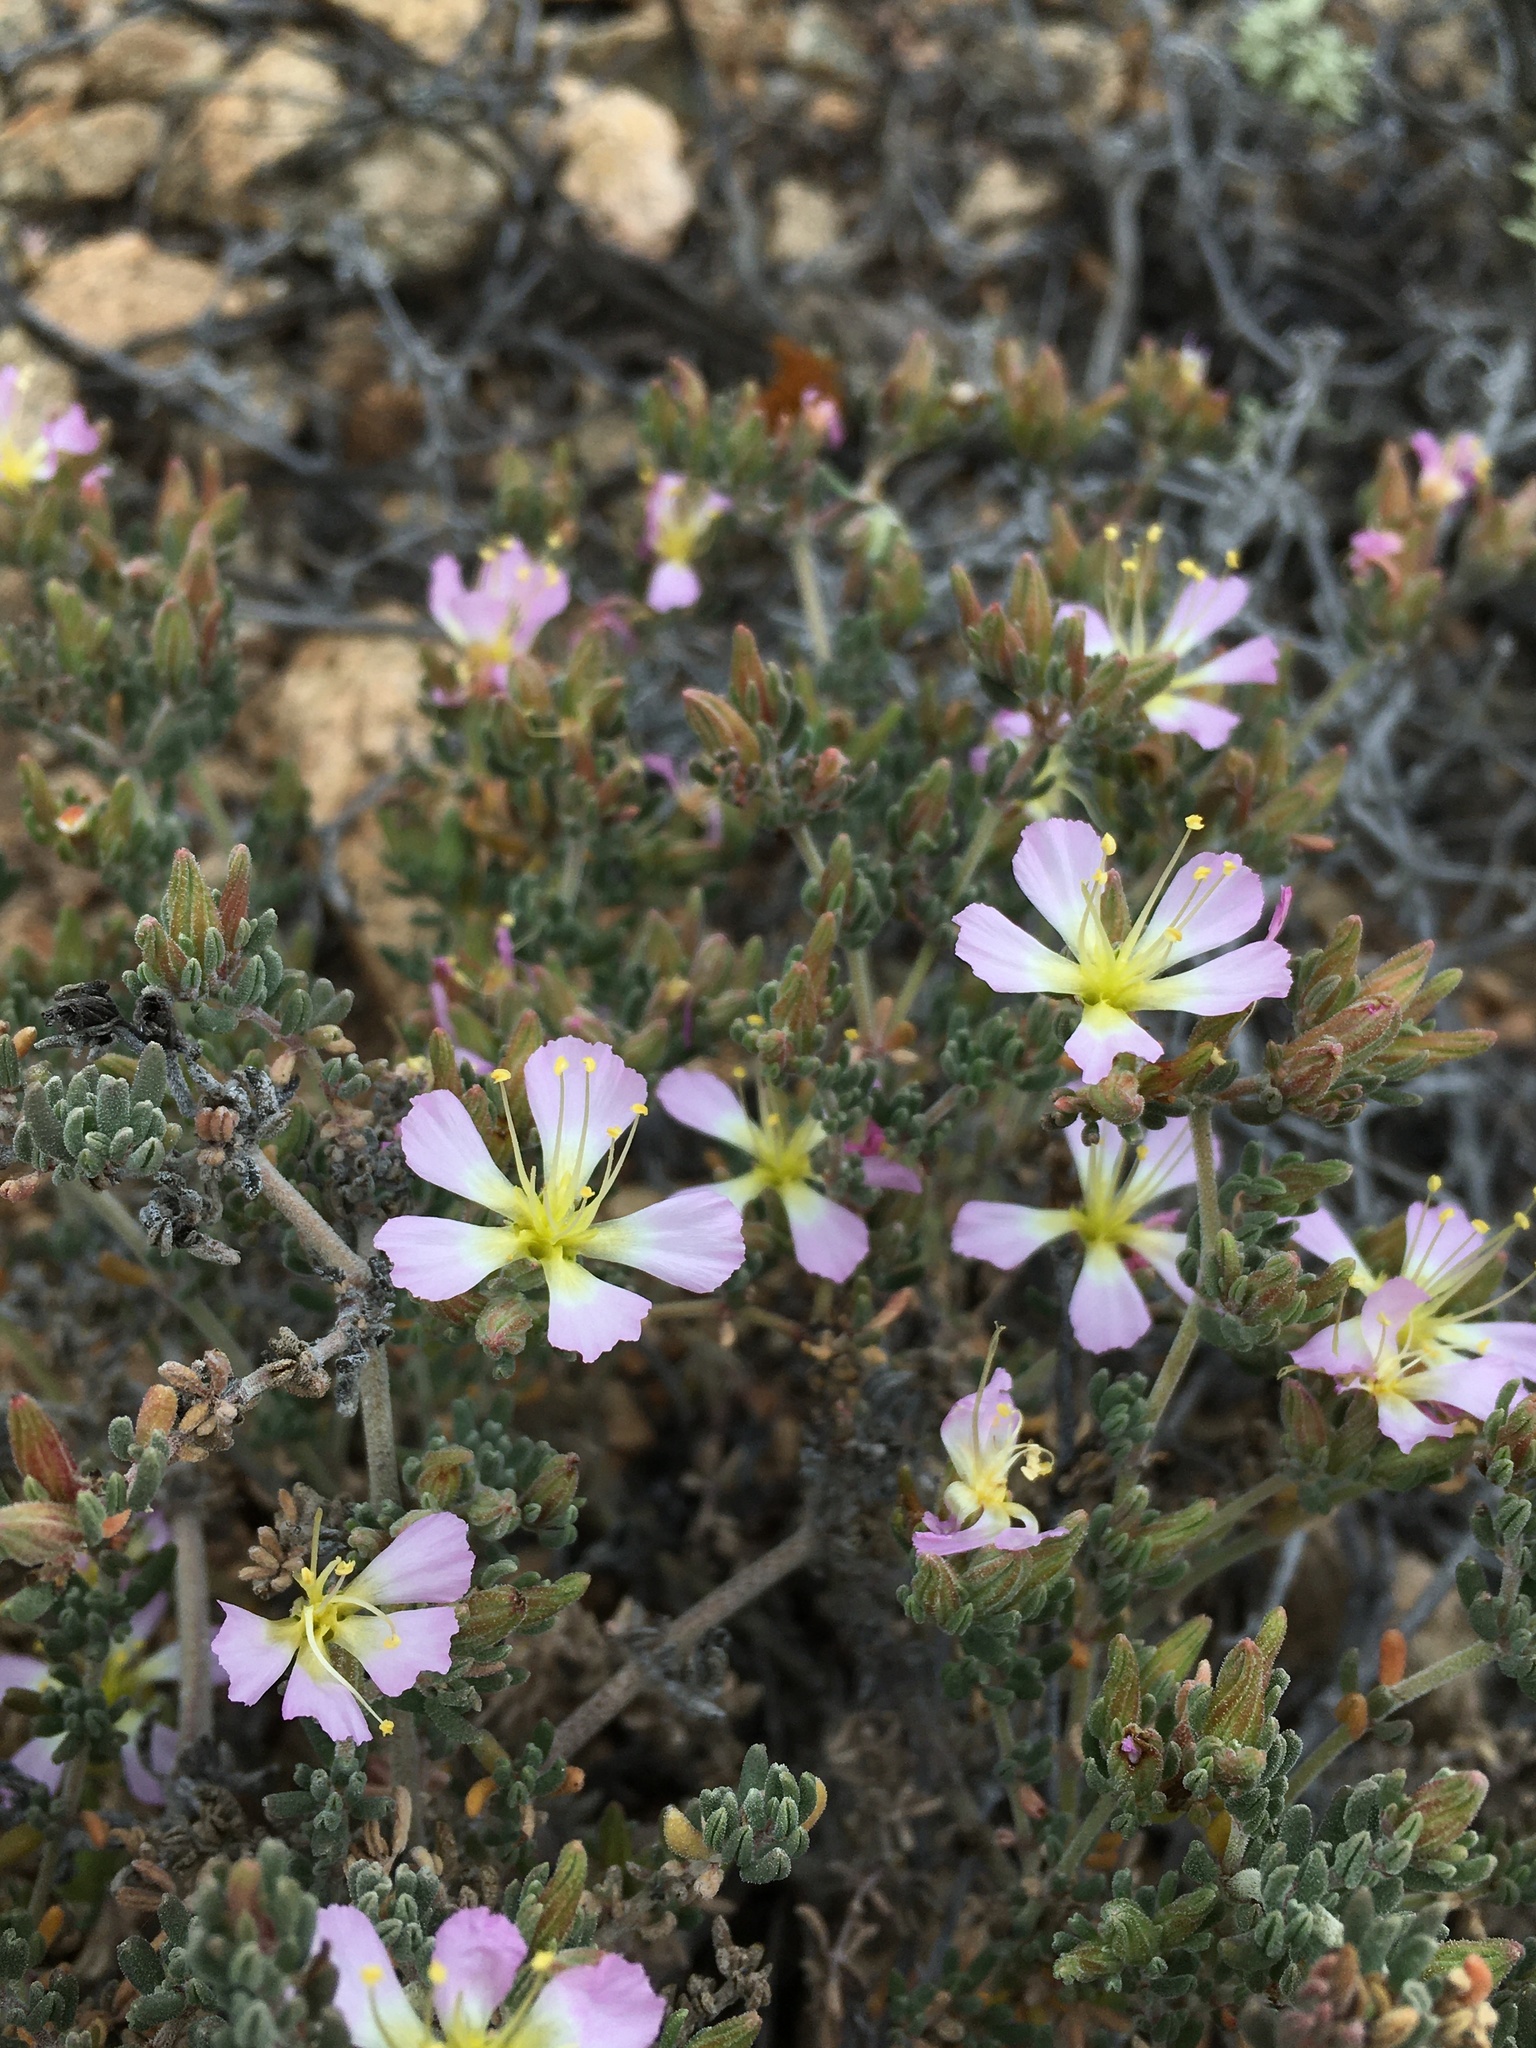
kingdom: Plantae
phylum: Tracheophyta
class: Magnoliopsida
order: Caryophyllales
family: Frankeniaceae
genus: Frankenia
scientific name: Frankenia chilensis
